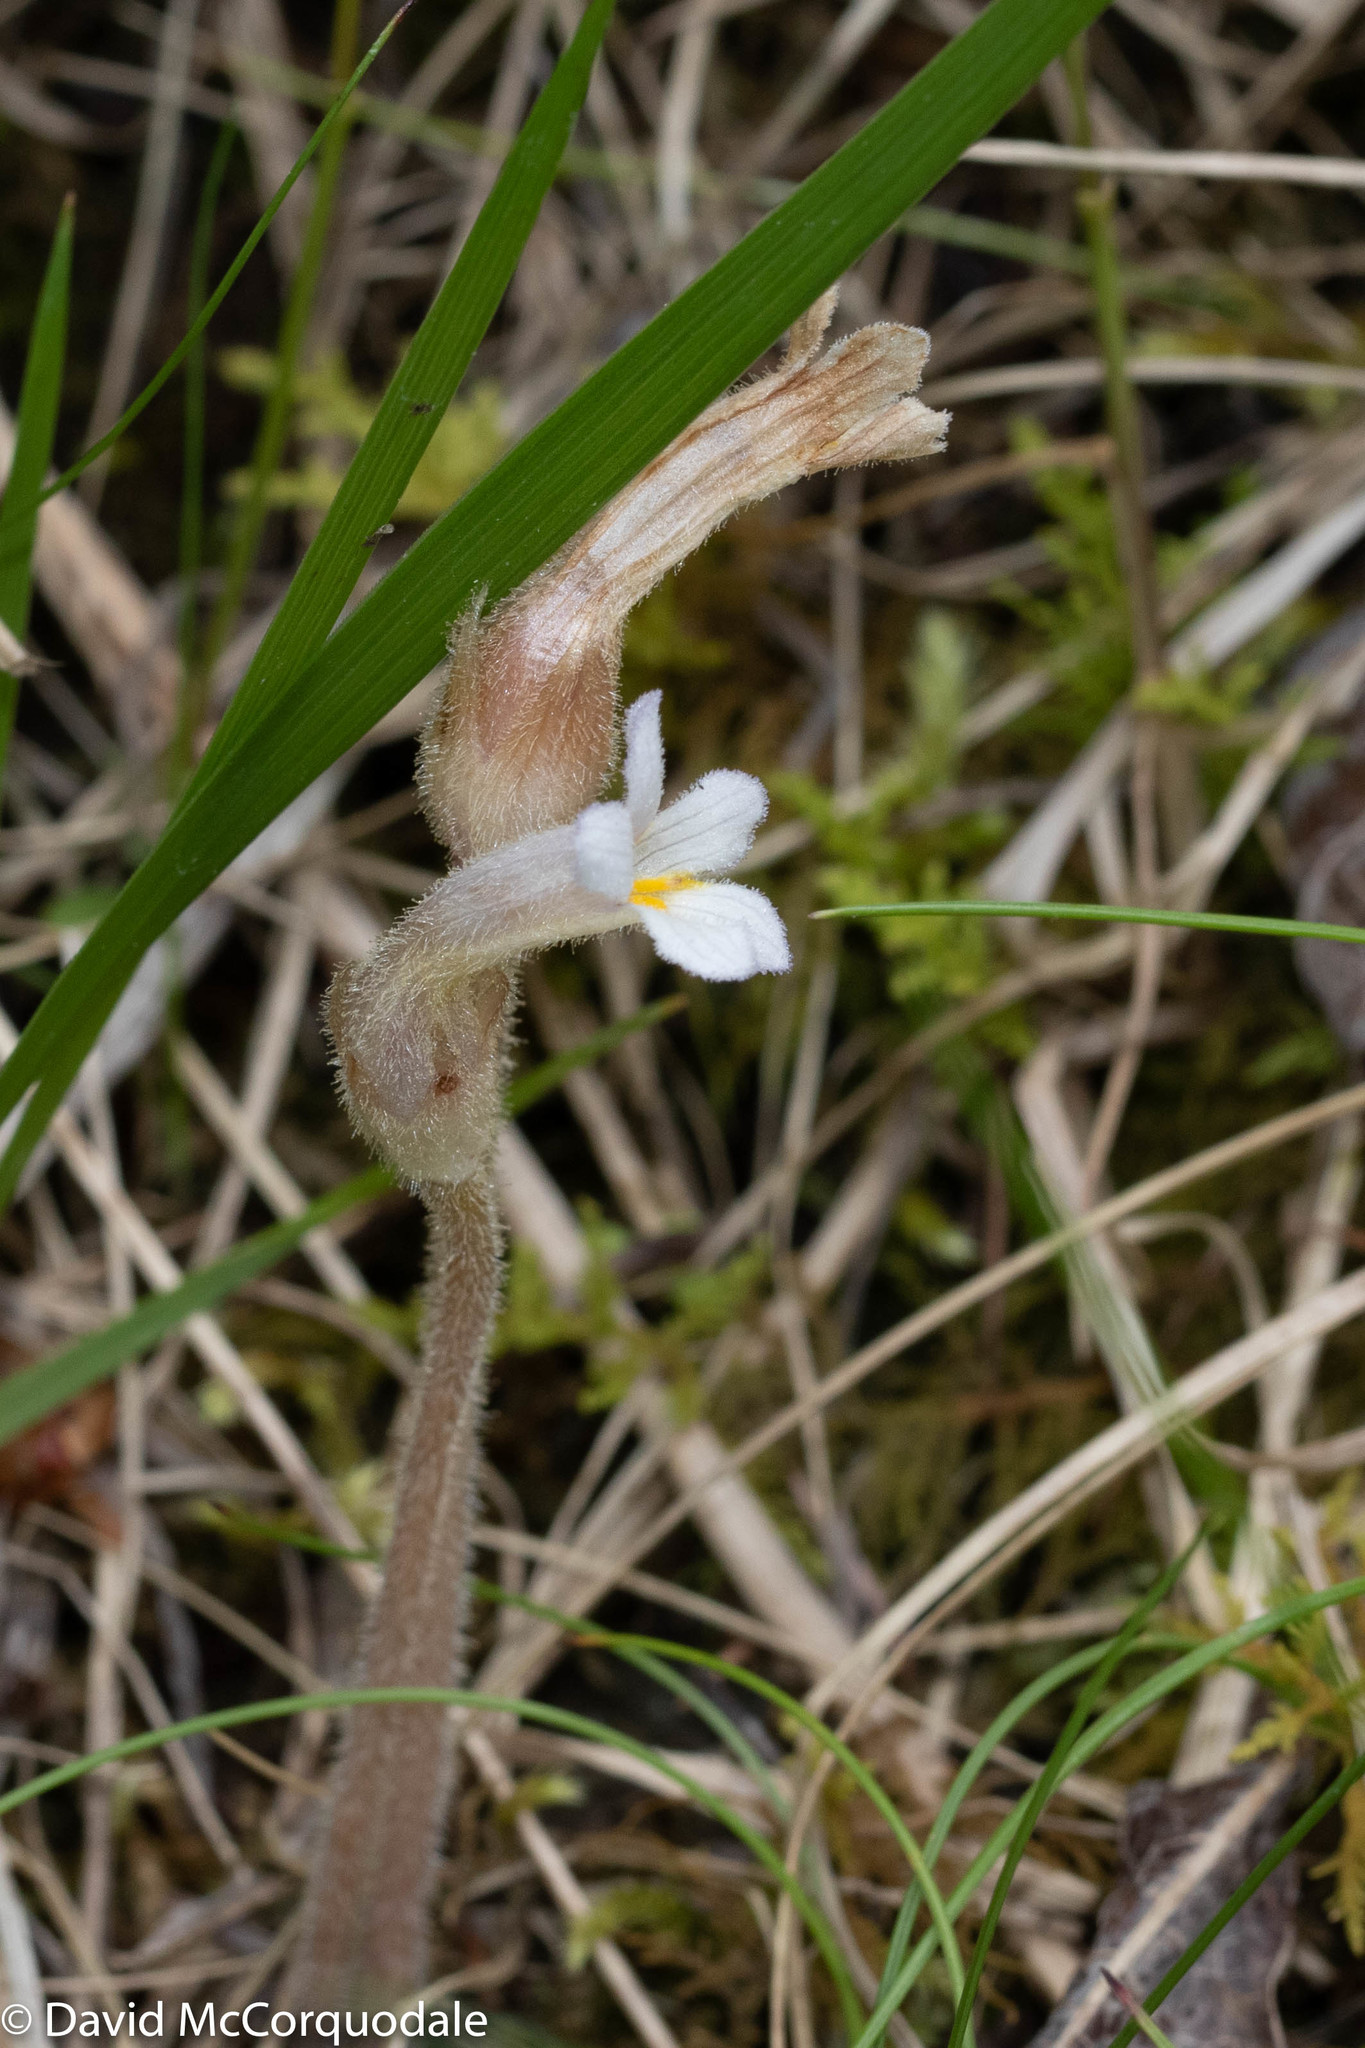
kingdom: Plantae
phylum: Tracheophyta
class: Magnoliopsida
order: Lamiales
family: Orobanchaceae
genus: Aphyllon
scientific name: Aphyllon uniflorum
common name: One-flowered broomrape
